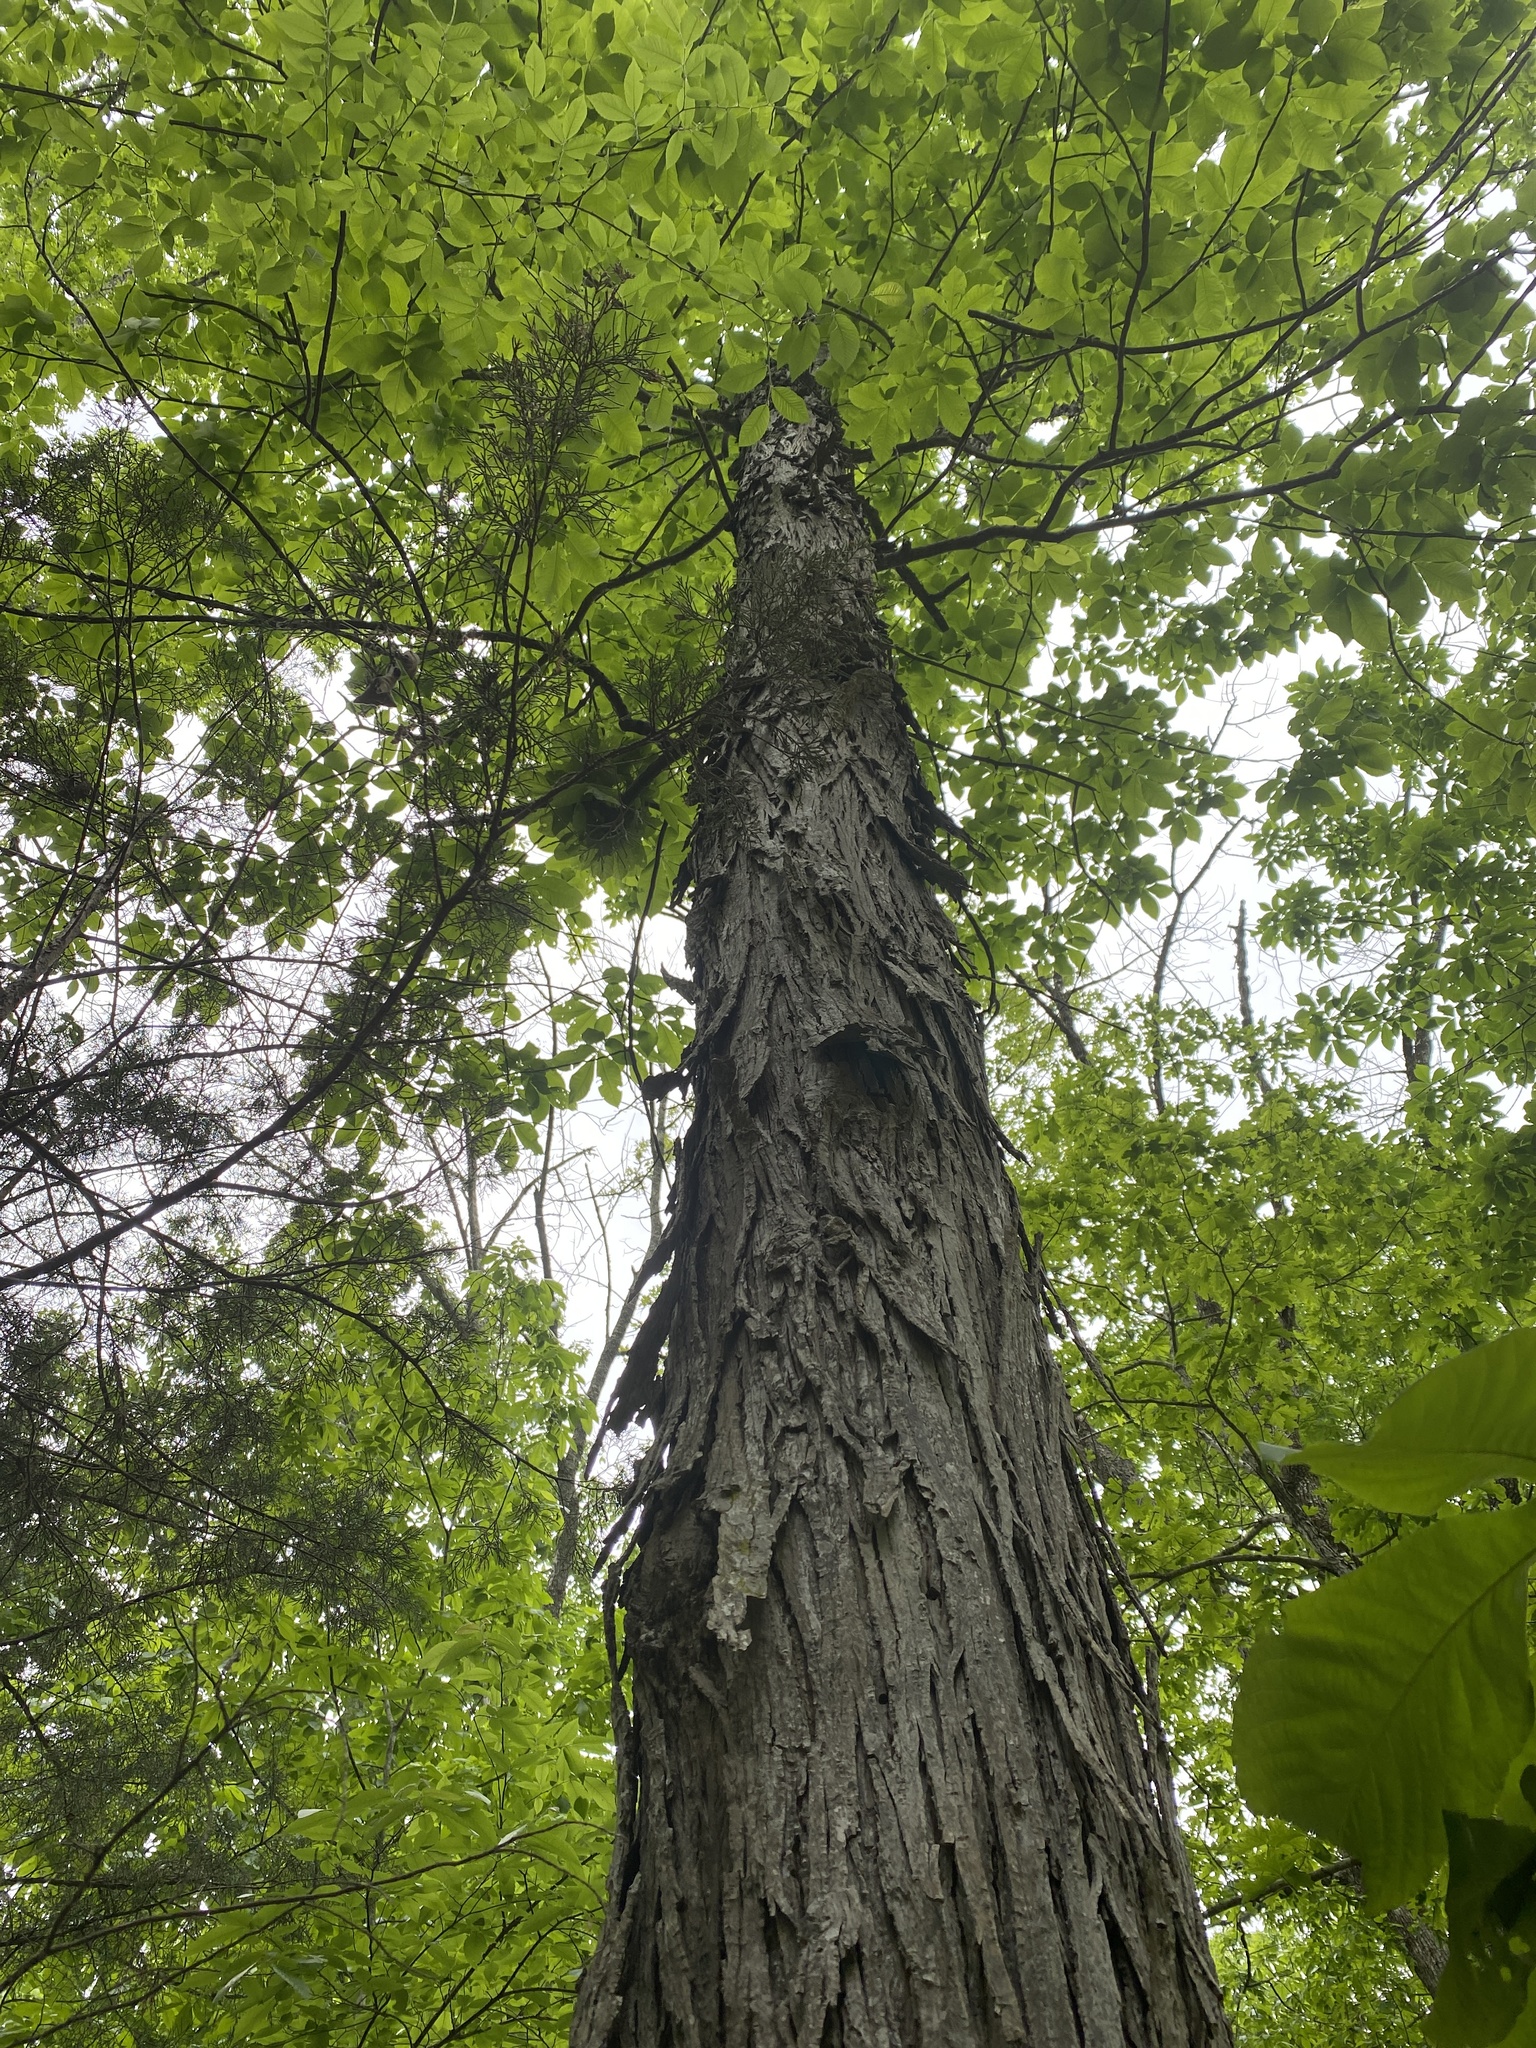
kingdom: Plantae
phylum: Tracheophyta
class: Magnoliopsida
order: Fagales
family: Juglandaceae
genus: Carya
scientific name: Carya ovata
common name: Shagbark hickory
